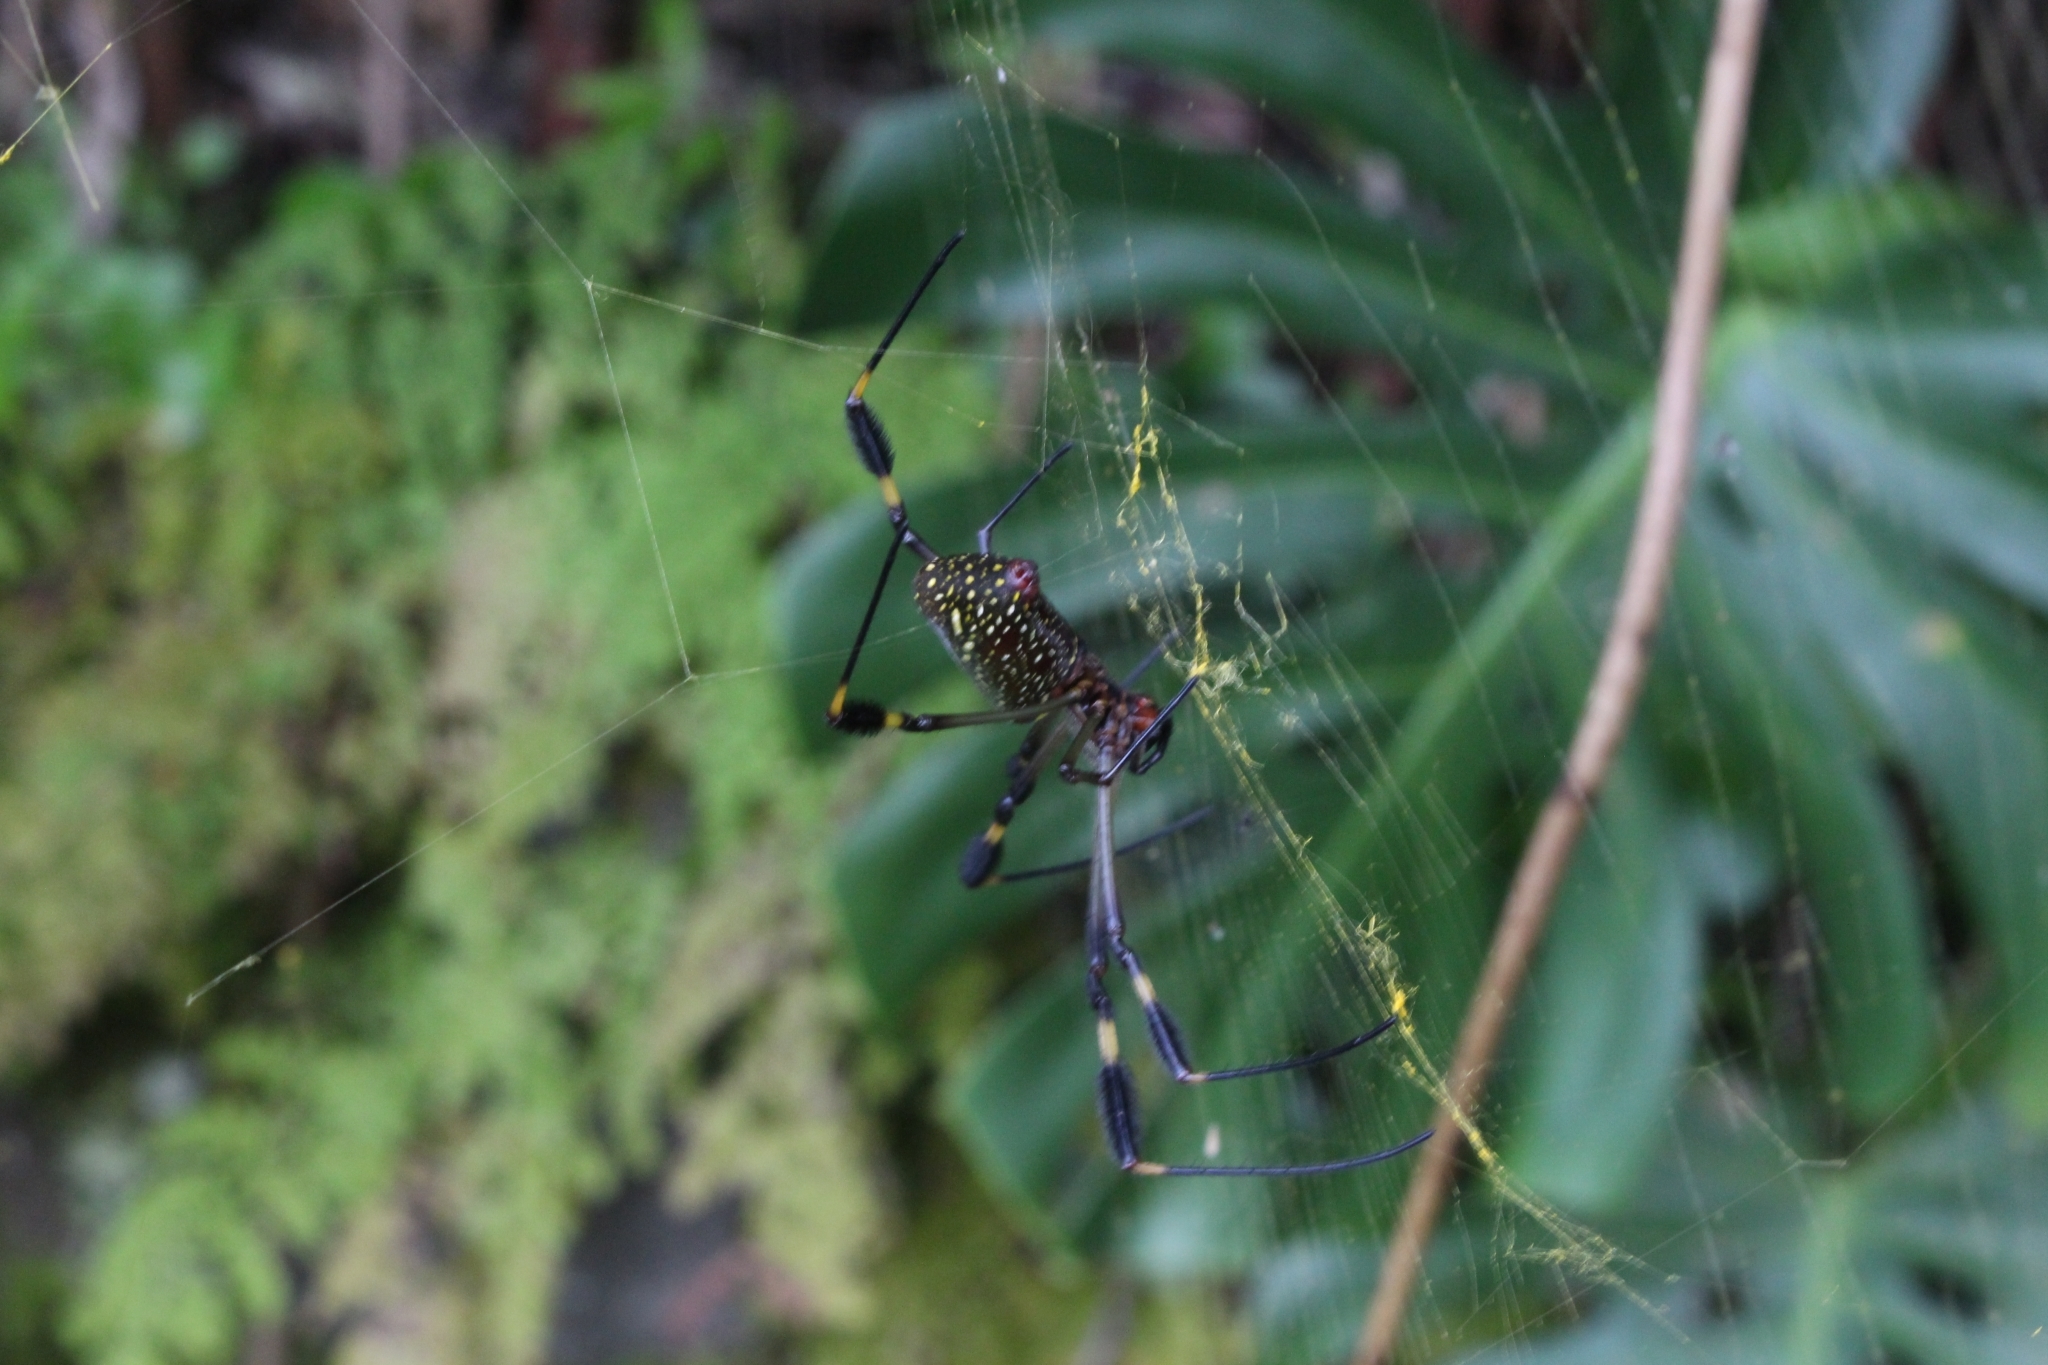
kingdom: Animalia
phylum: Arthropoda
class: Arachnida
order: Araneae
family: Araneidae
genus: Trichonephila
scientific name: Trichonephila clavipes
